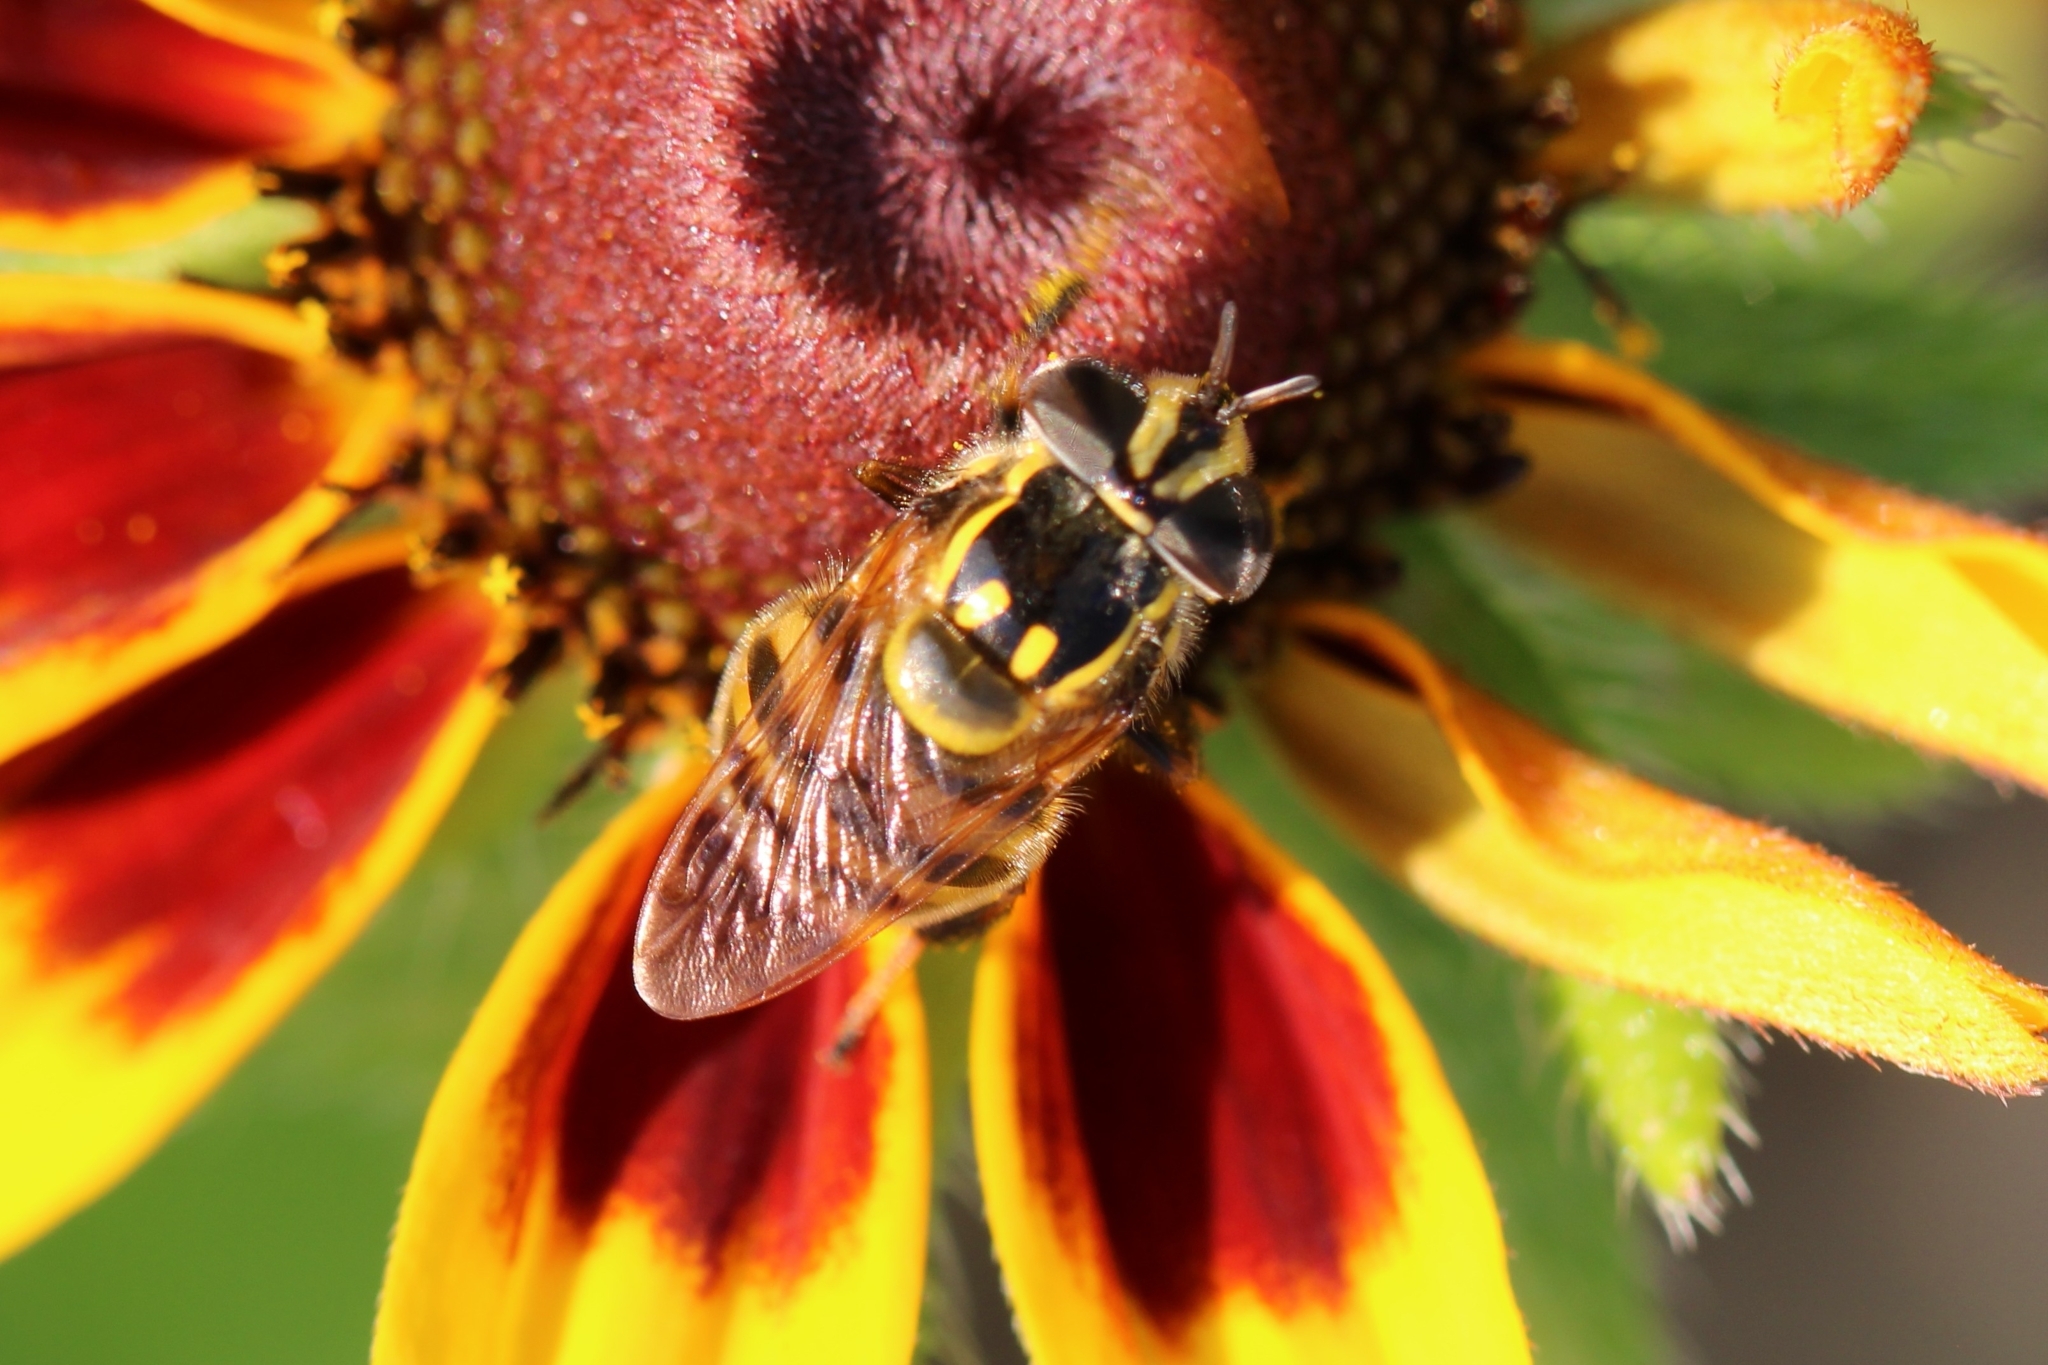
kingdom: Animalia
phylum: Arthropoda
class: Insecta
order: Diptera
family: Syrphidae
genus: Copestylum
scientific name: Copestylum vittatum
